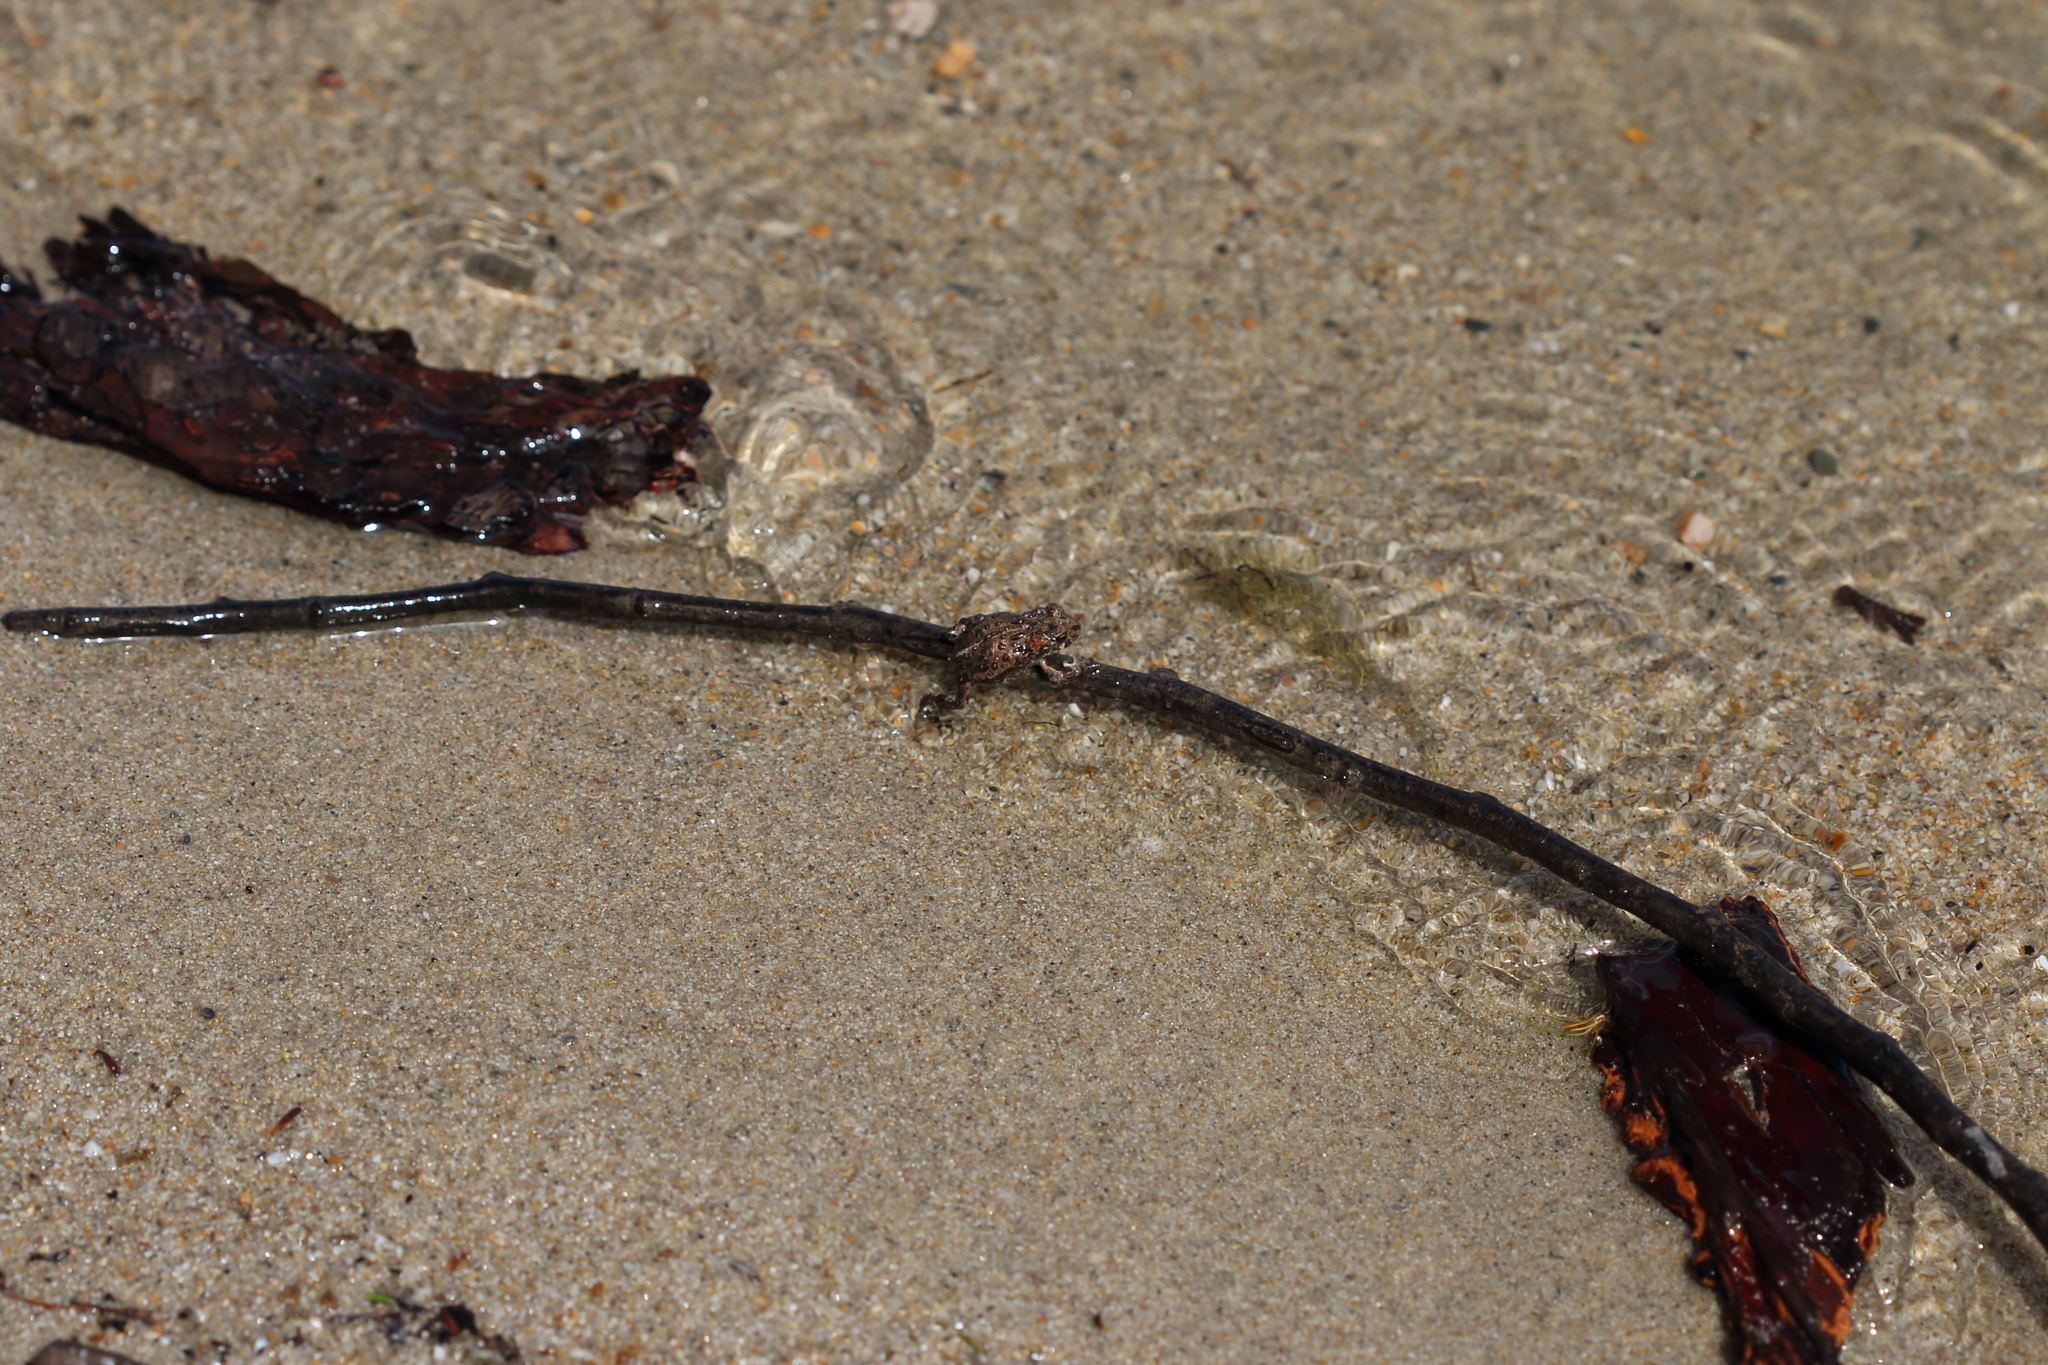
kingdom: Animalia
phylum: Chordata
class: Amphibia
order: Anura
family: Bufonidae
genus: Anaxyrus
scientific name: Anaxyrus boreas
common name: Western toad
